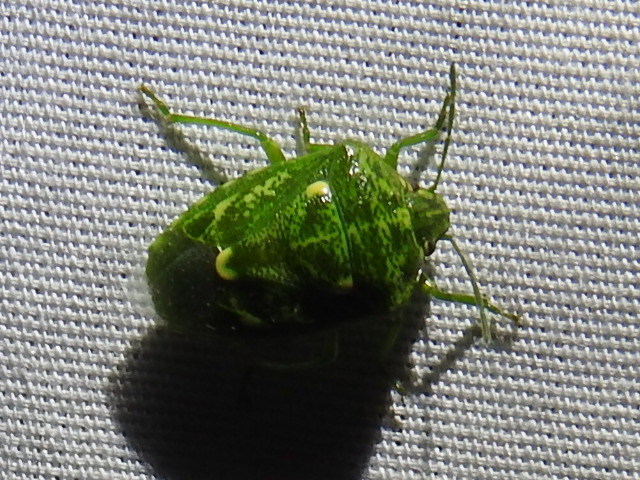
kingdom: Animalia
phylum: Arthropoda
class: Insecta
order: Hemiptera
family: Pentatomidae
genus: Banasa
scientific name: Banasa euchlora
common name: Cedar berry bug
